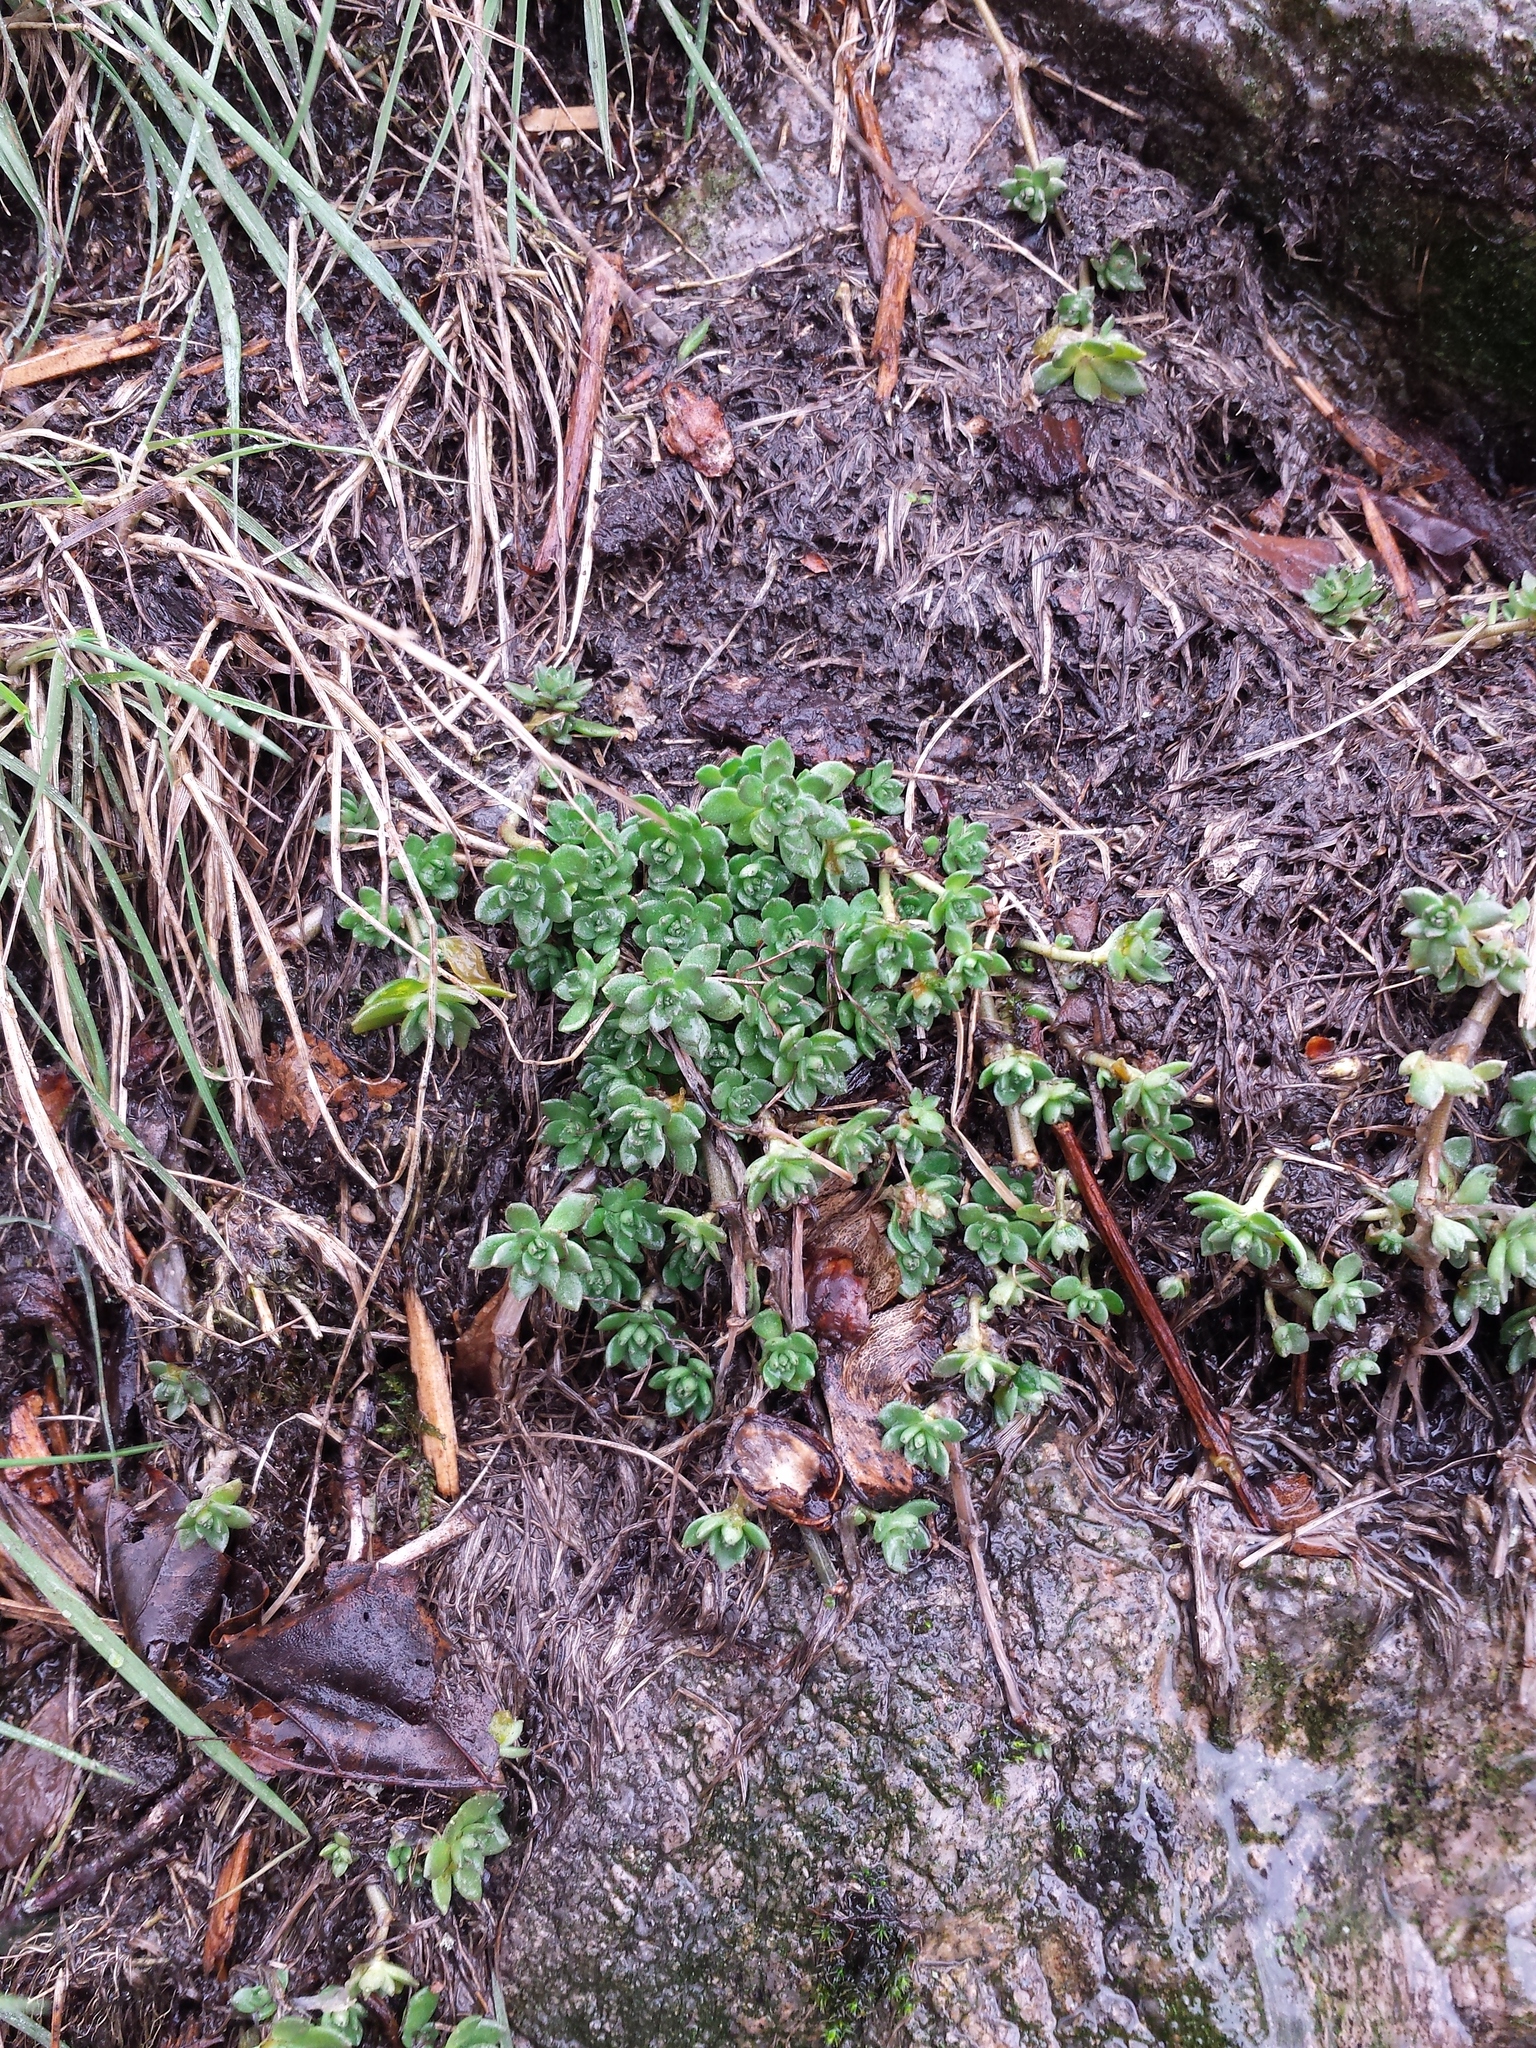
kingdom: Plantae
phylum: Tracheophyta
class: Magnoliopsida
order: Saxifragales
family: Crassulaceae
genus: Sedum
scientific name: Sedum sarmentosum
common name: Stringy stonecrop
